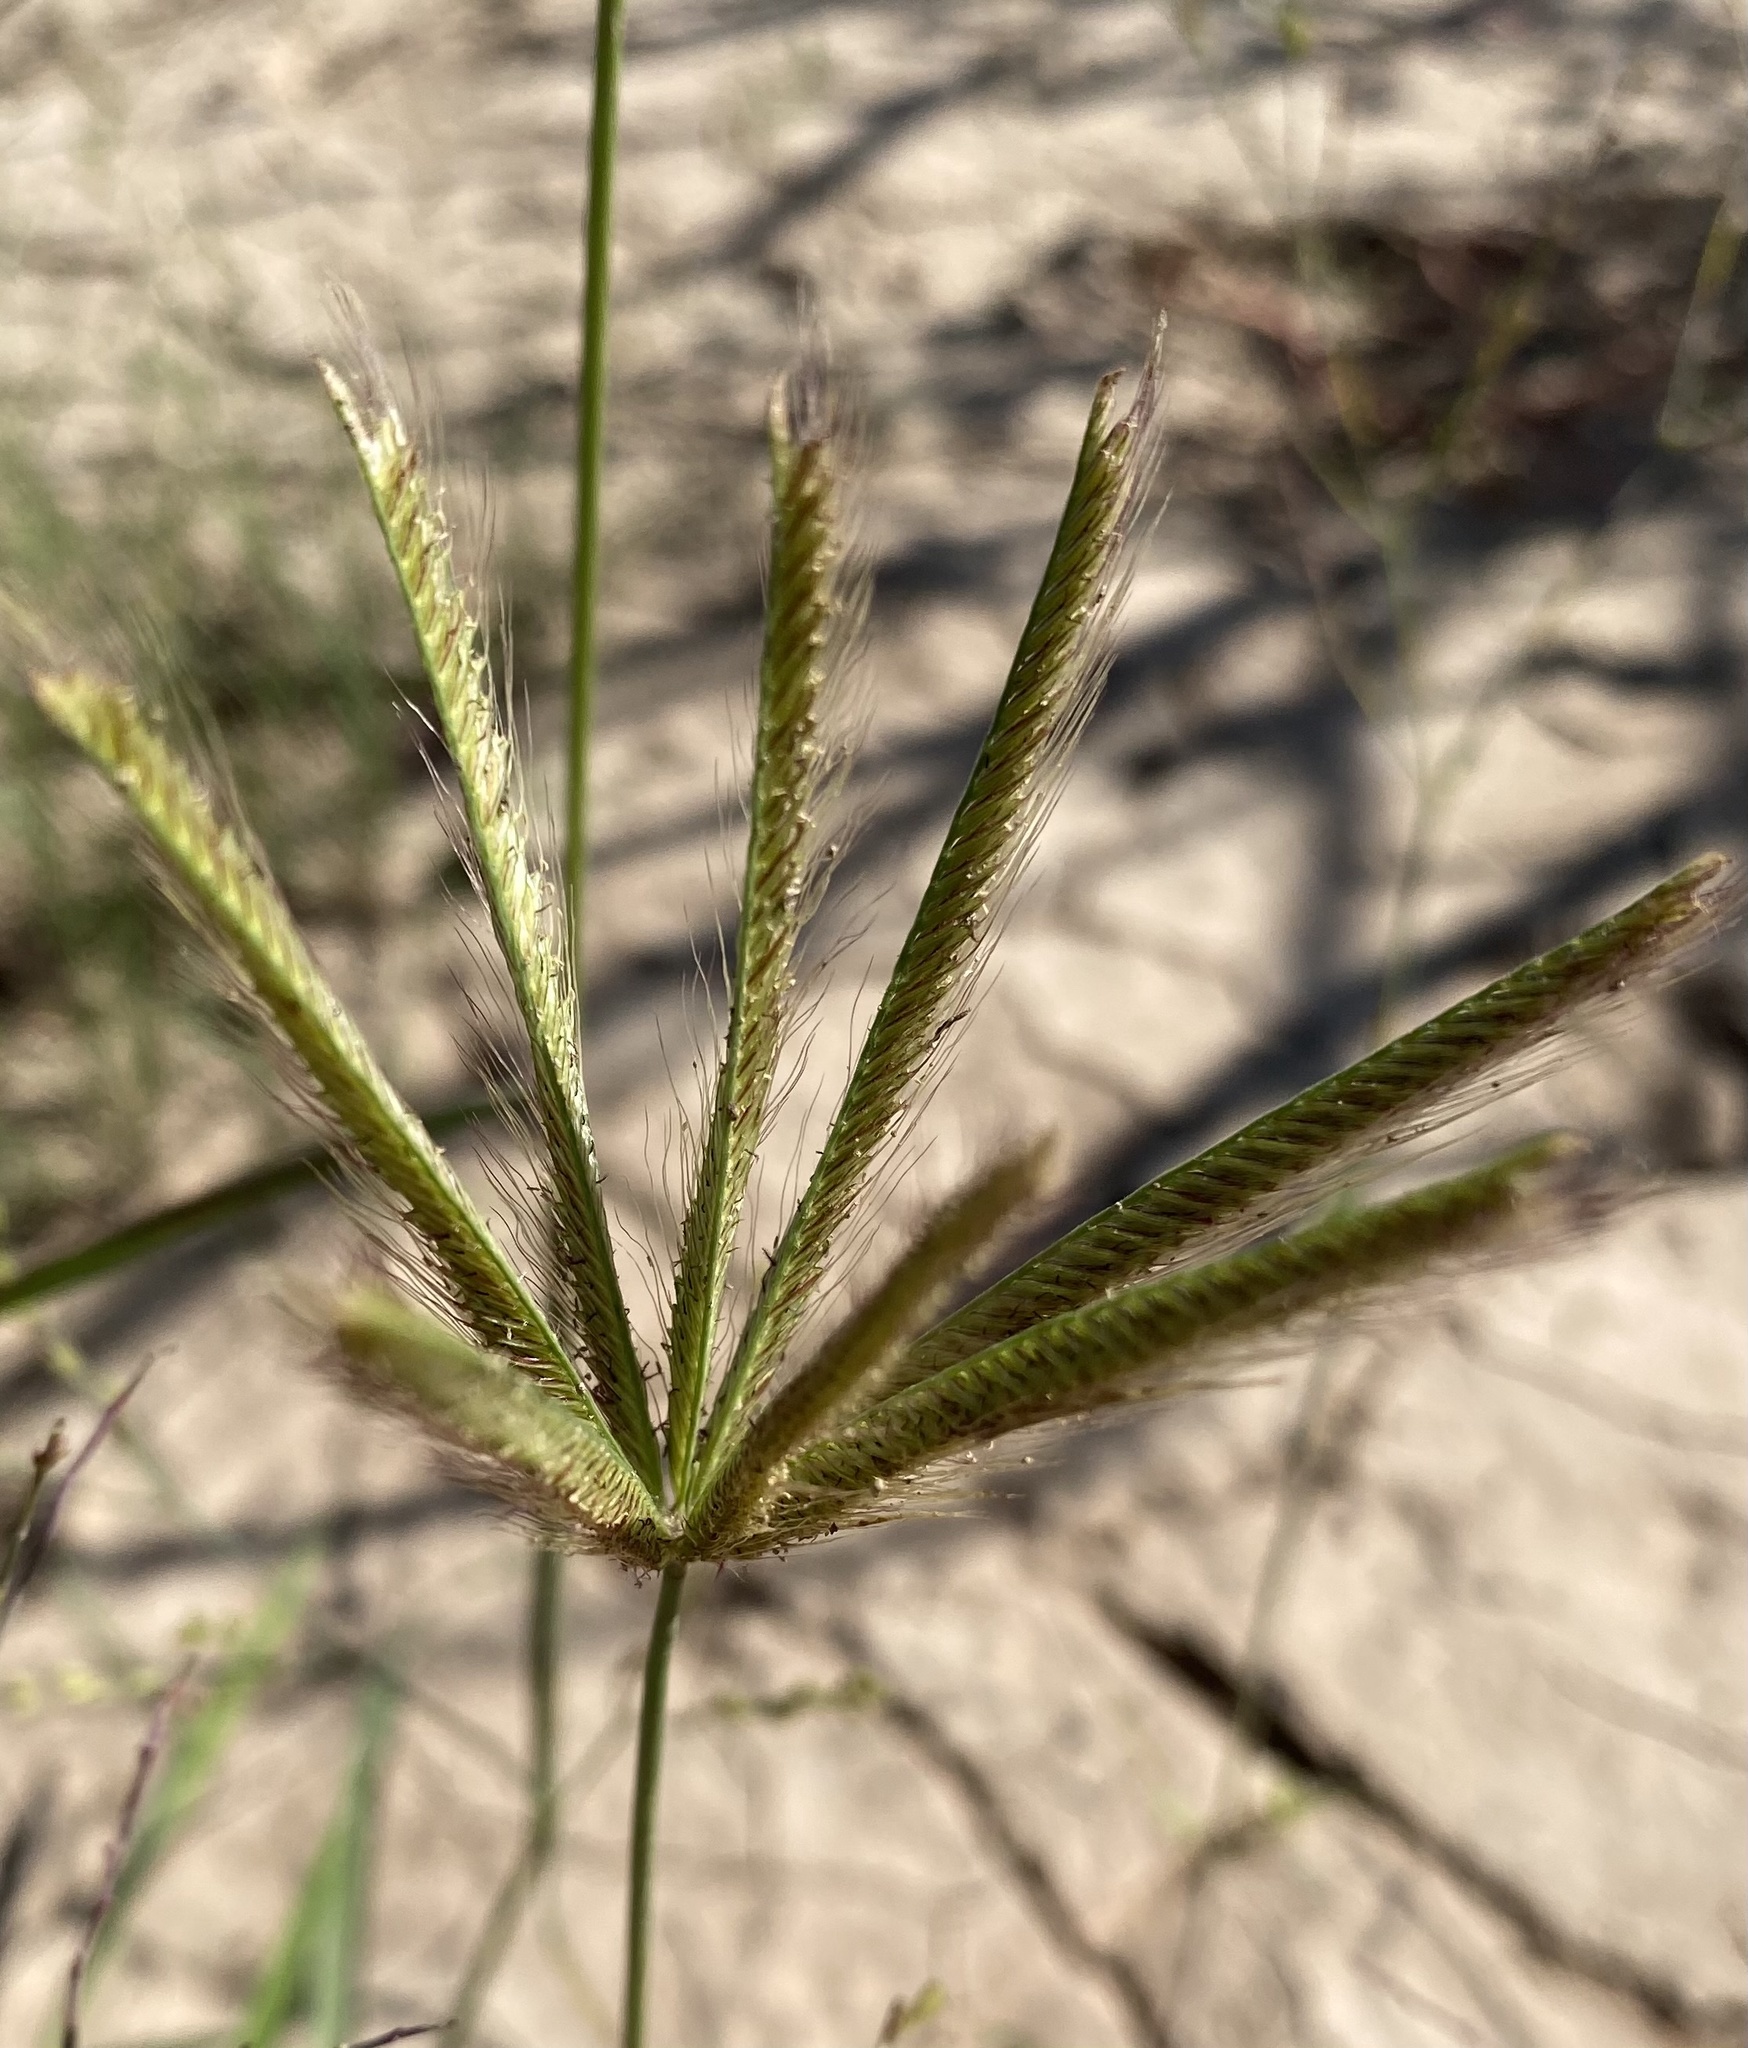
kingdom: Plantae
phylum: Tracheophyta
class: Liliopsida
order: Poales
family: Poaceae
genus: Chloris
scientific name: Chloris virgata
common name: Feathery rhodes-grass
